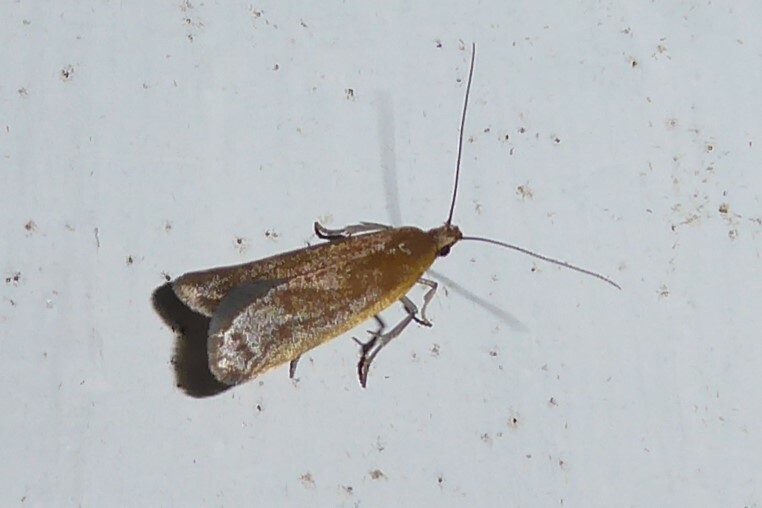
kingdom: Animalia
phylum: Arthropoda
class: Insecta
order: Lepidoptera
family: Oecophoridae
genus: Gymnobathra
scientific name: Gymnobathra parca
